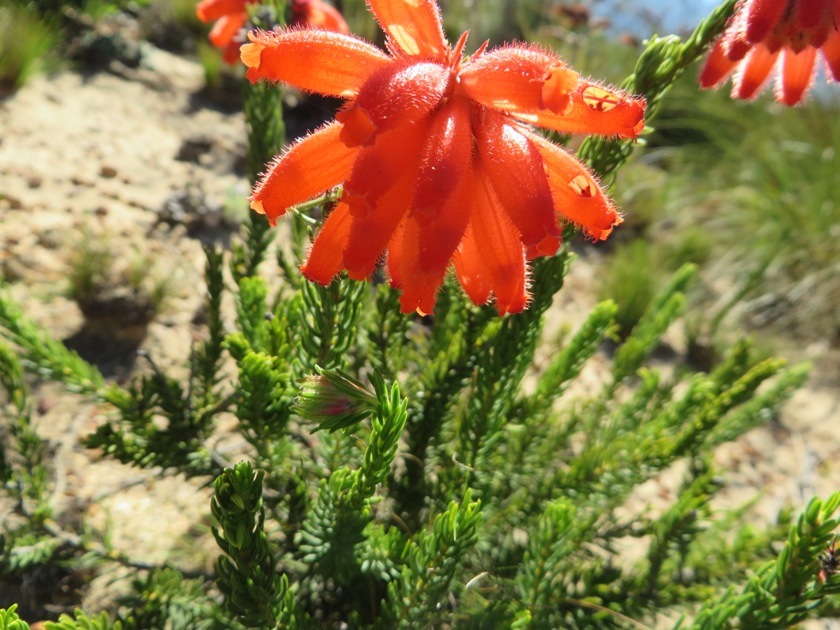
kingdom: Plantae
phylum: Tracheophyta
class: Magnoliopsida
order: Ericales
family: Ericaceae
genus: Erica
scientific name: Erica cerinthoides
